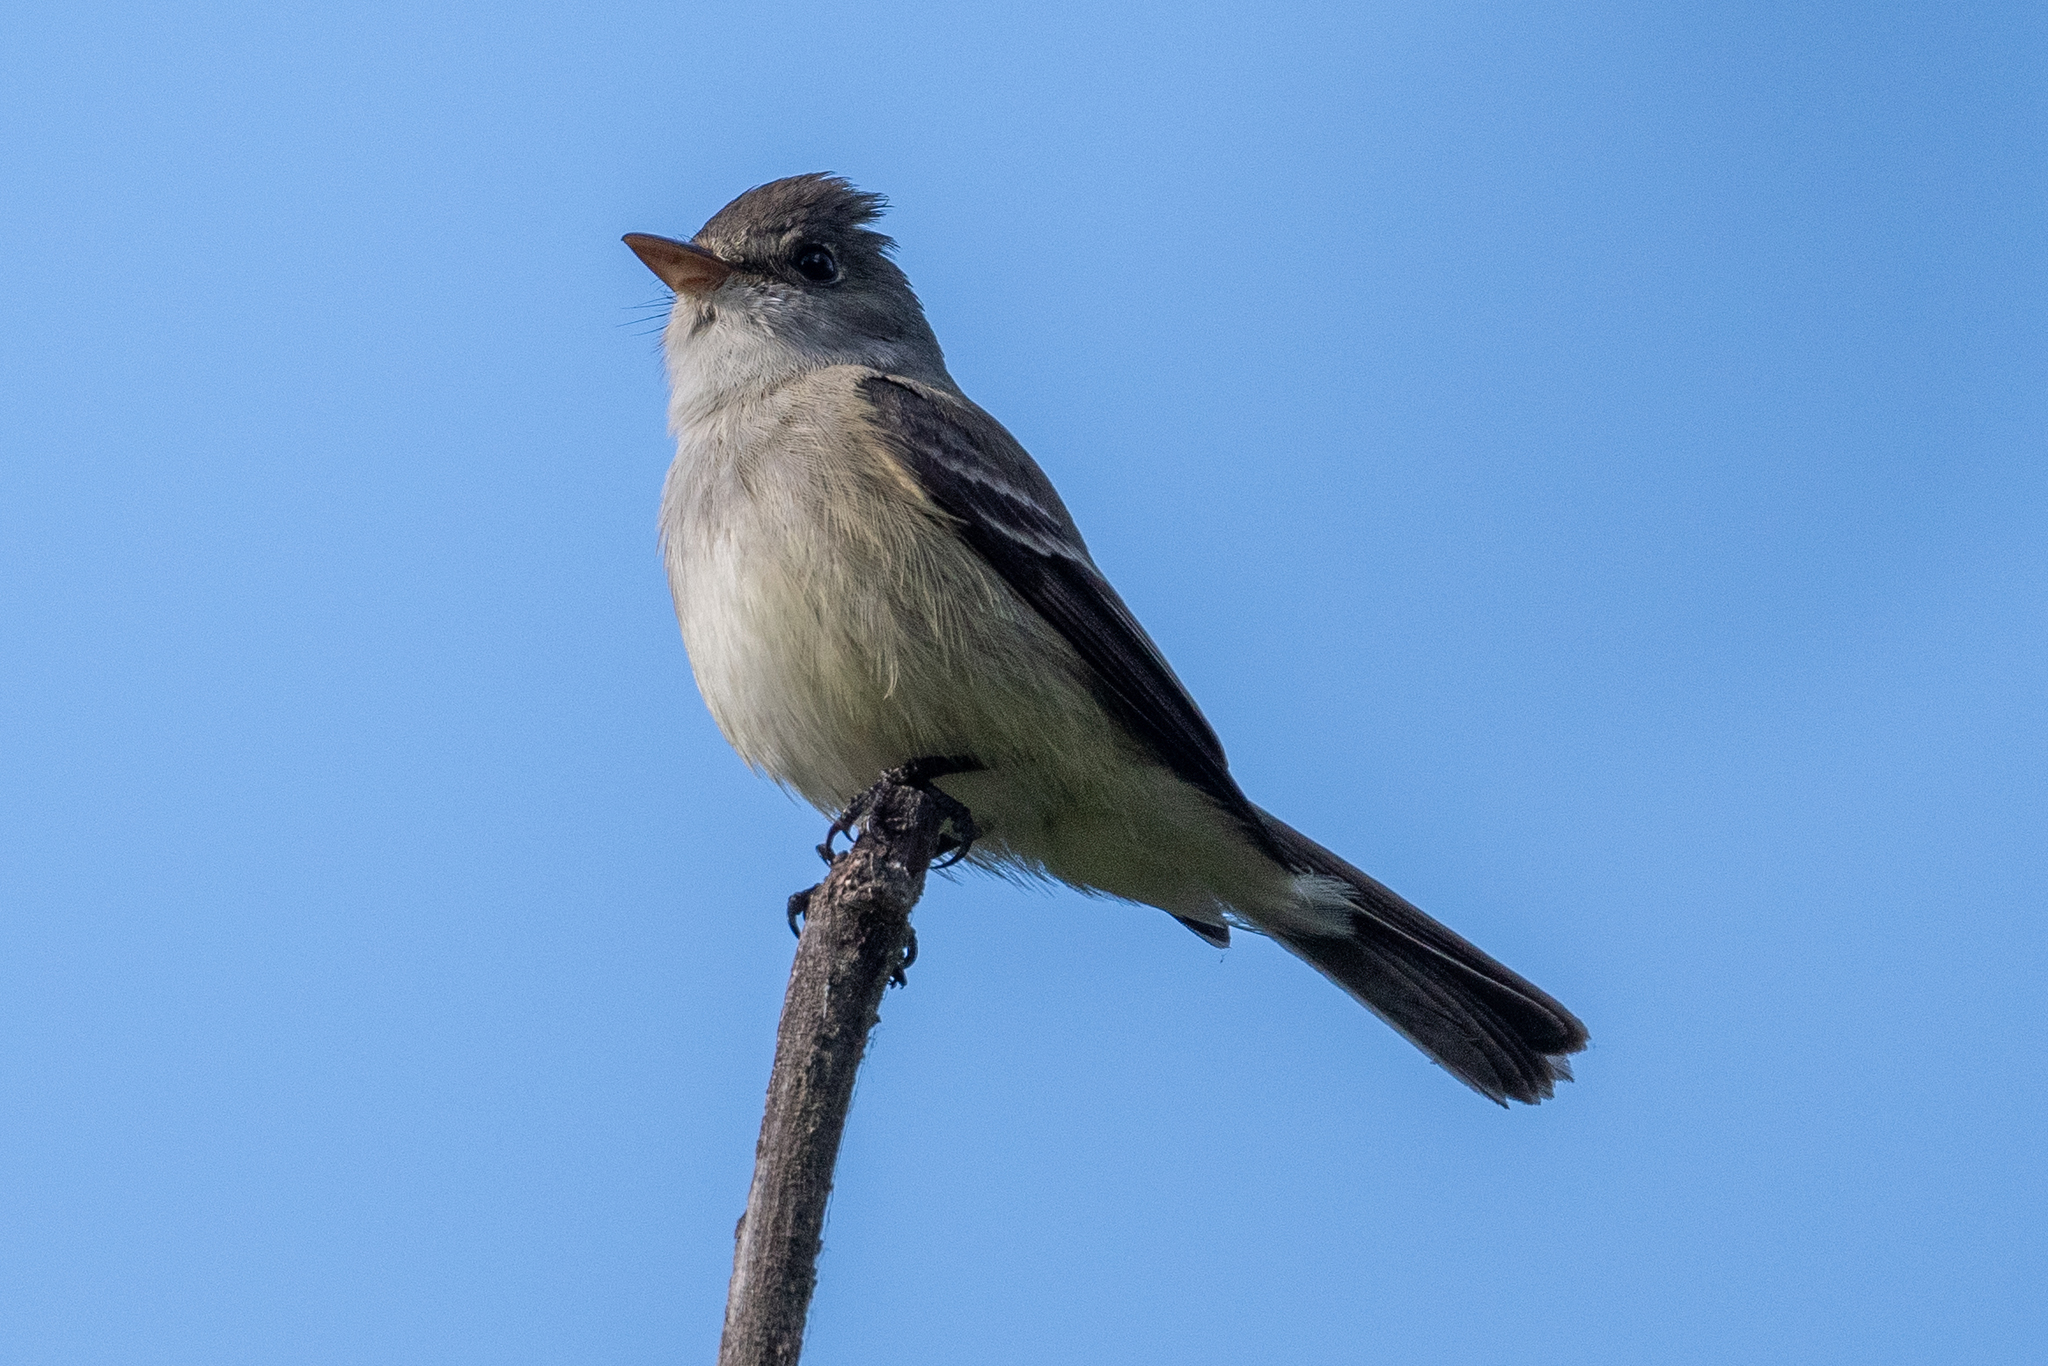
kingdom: Animalia
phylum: Chordata
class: Aves
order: Passeriformes
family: Tyrannidae
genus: Empidonax
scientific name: Empidonax traillii
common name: Willow flycatcher
